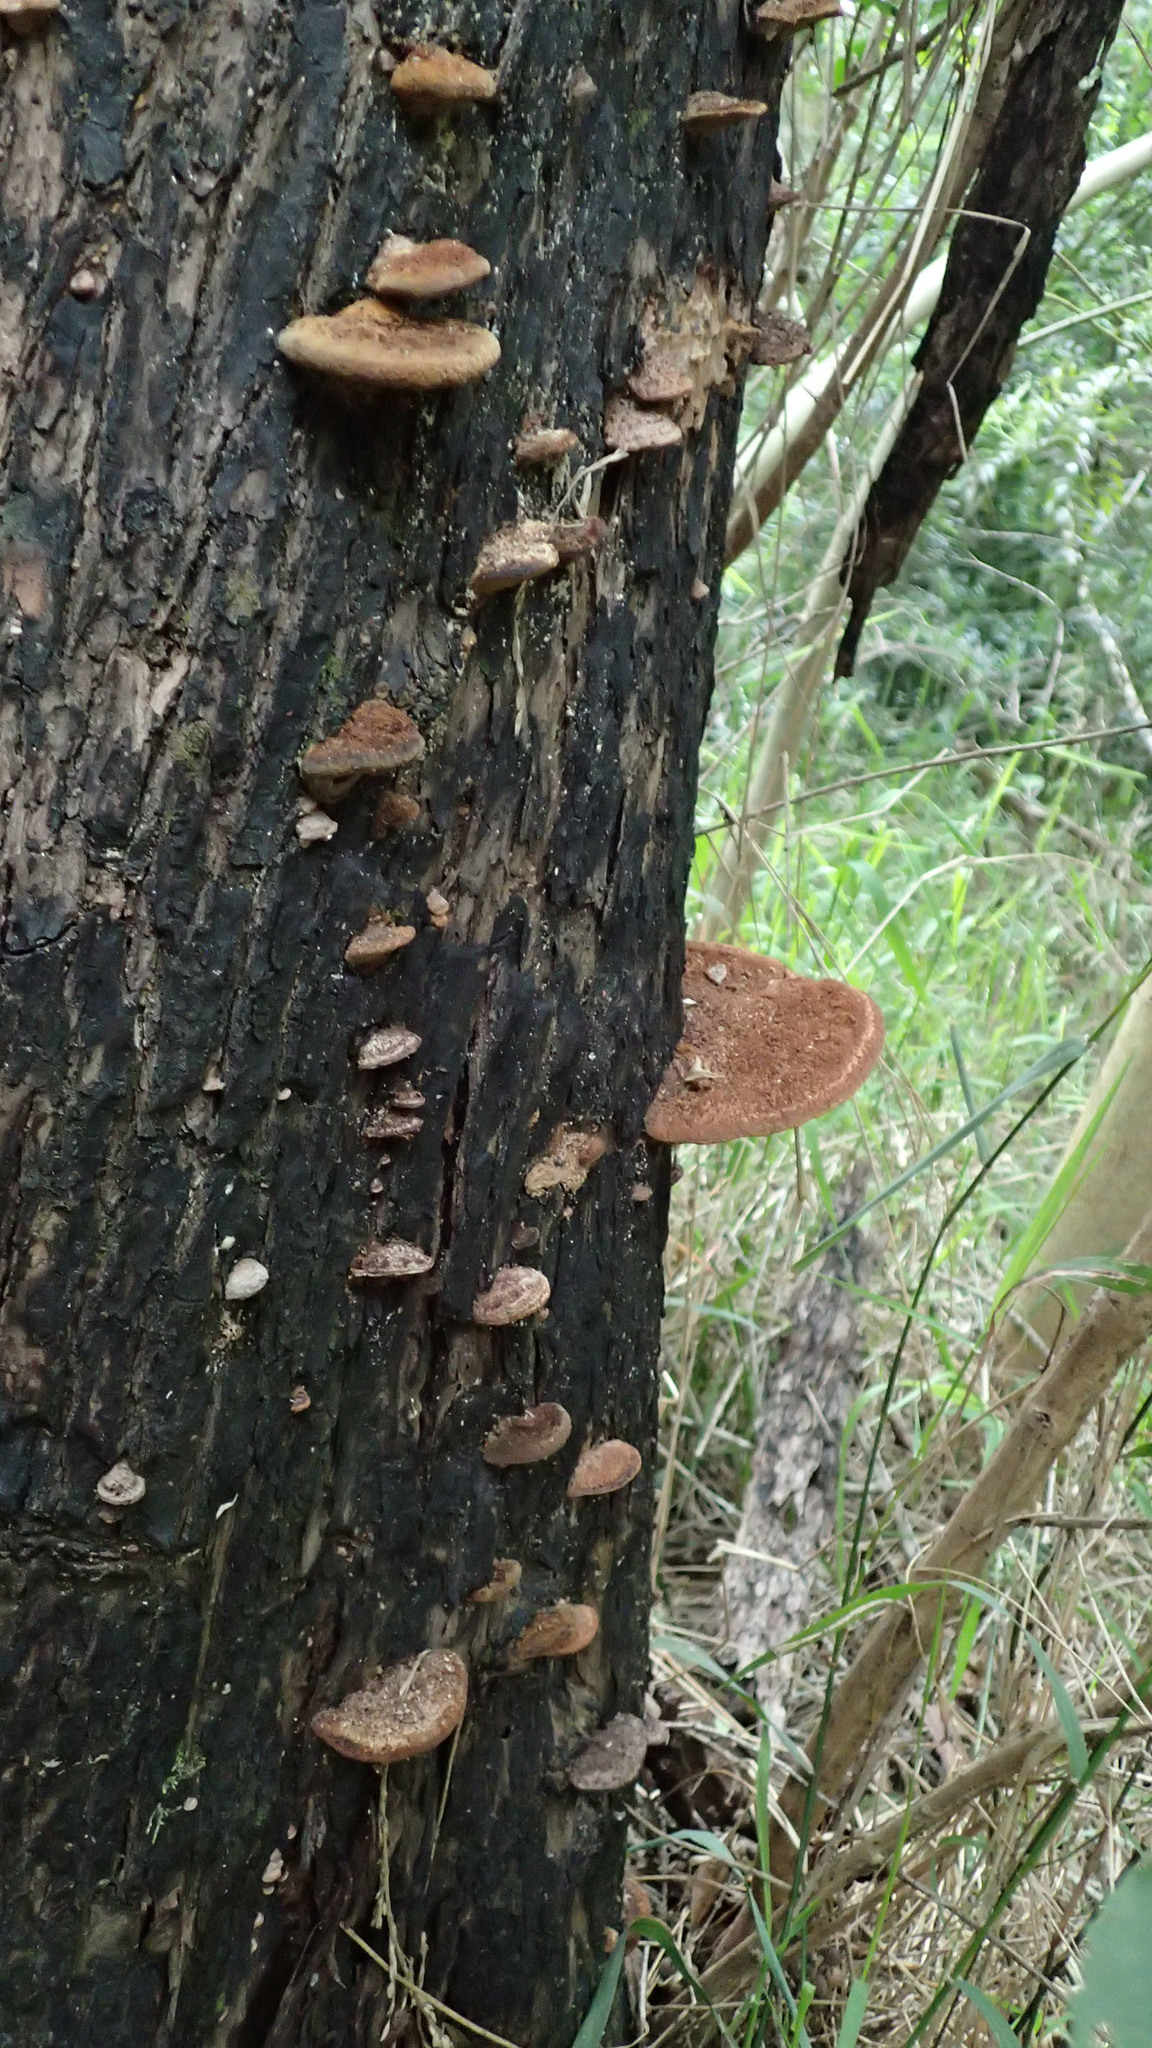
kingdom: Fungi
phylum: Basidiomycota
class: Agaricomycetes
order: Hymenochaetales
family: Hymenochaetaceae
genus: Phellinus
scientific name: Phellinus gilvus
